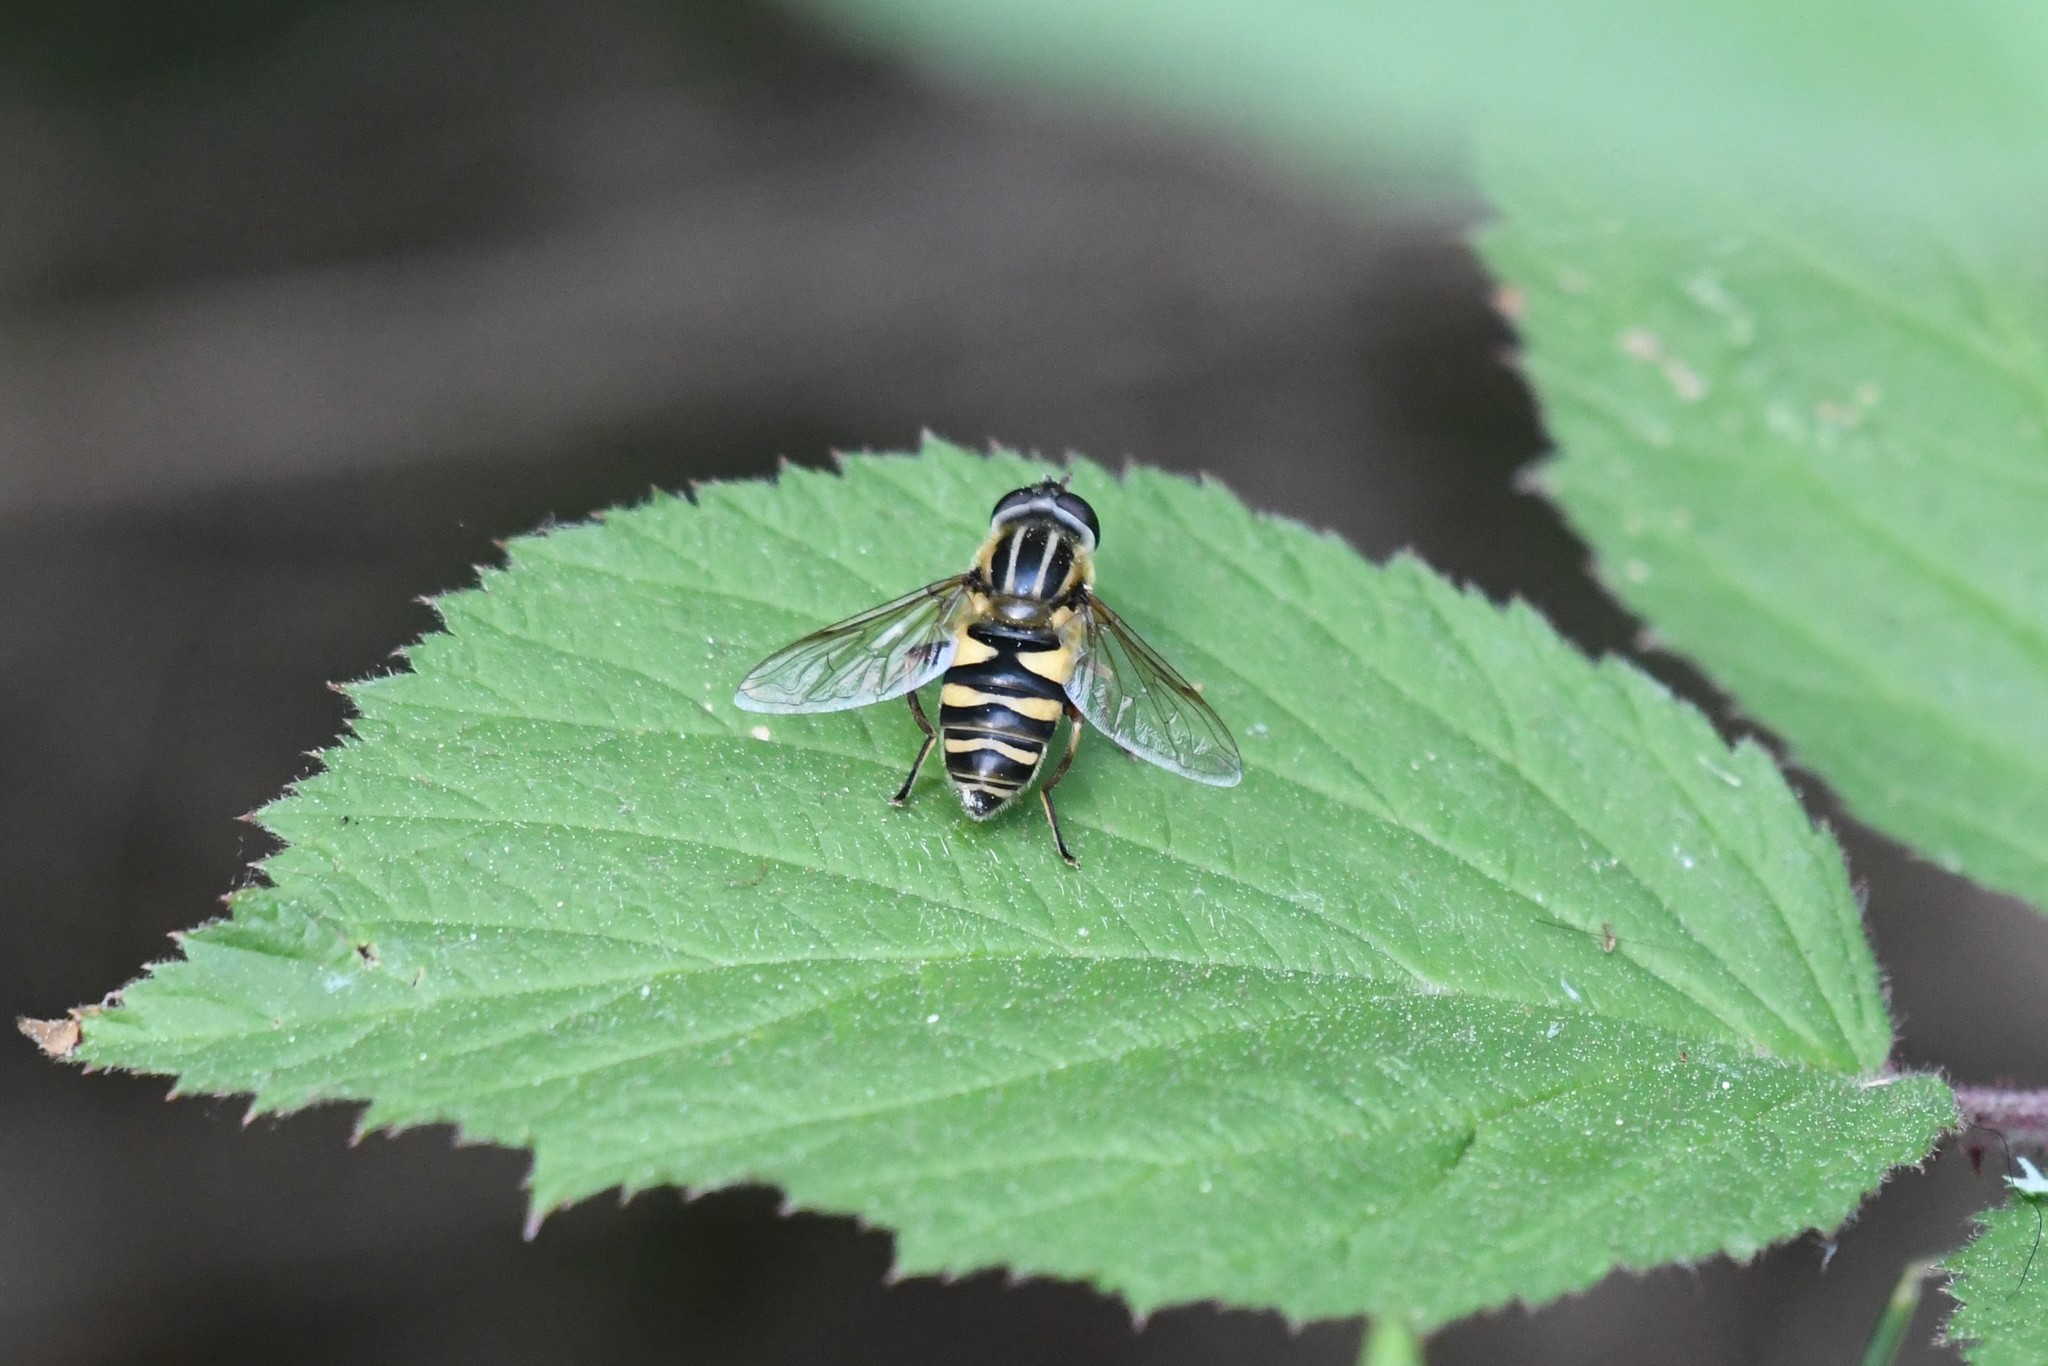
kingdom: Animalia
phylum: Arthropoda
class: Insecta
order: Diptera
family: Syrphidae
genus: Helophilus
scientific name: Helophilus fasciatus
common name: Narrow-headed marsh fly
